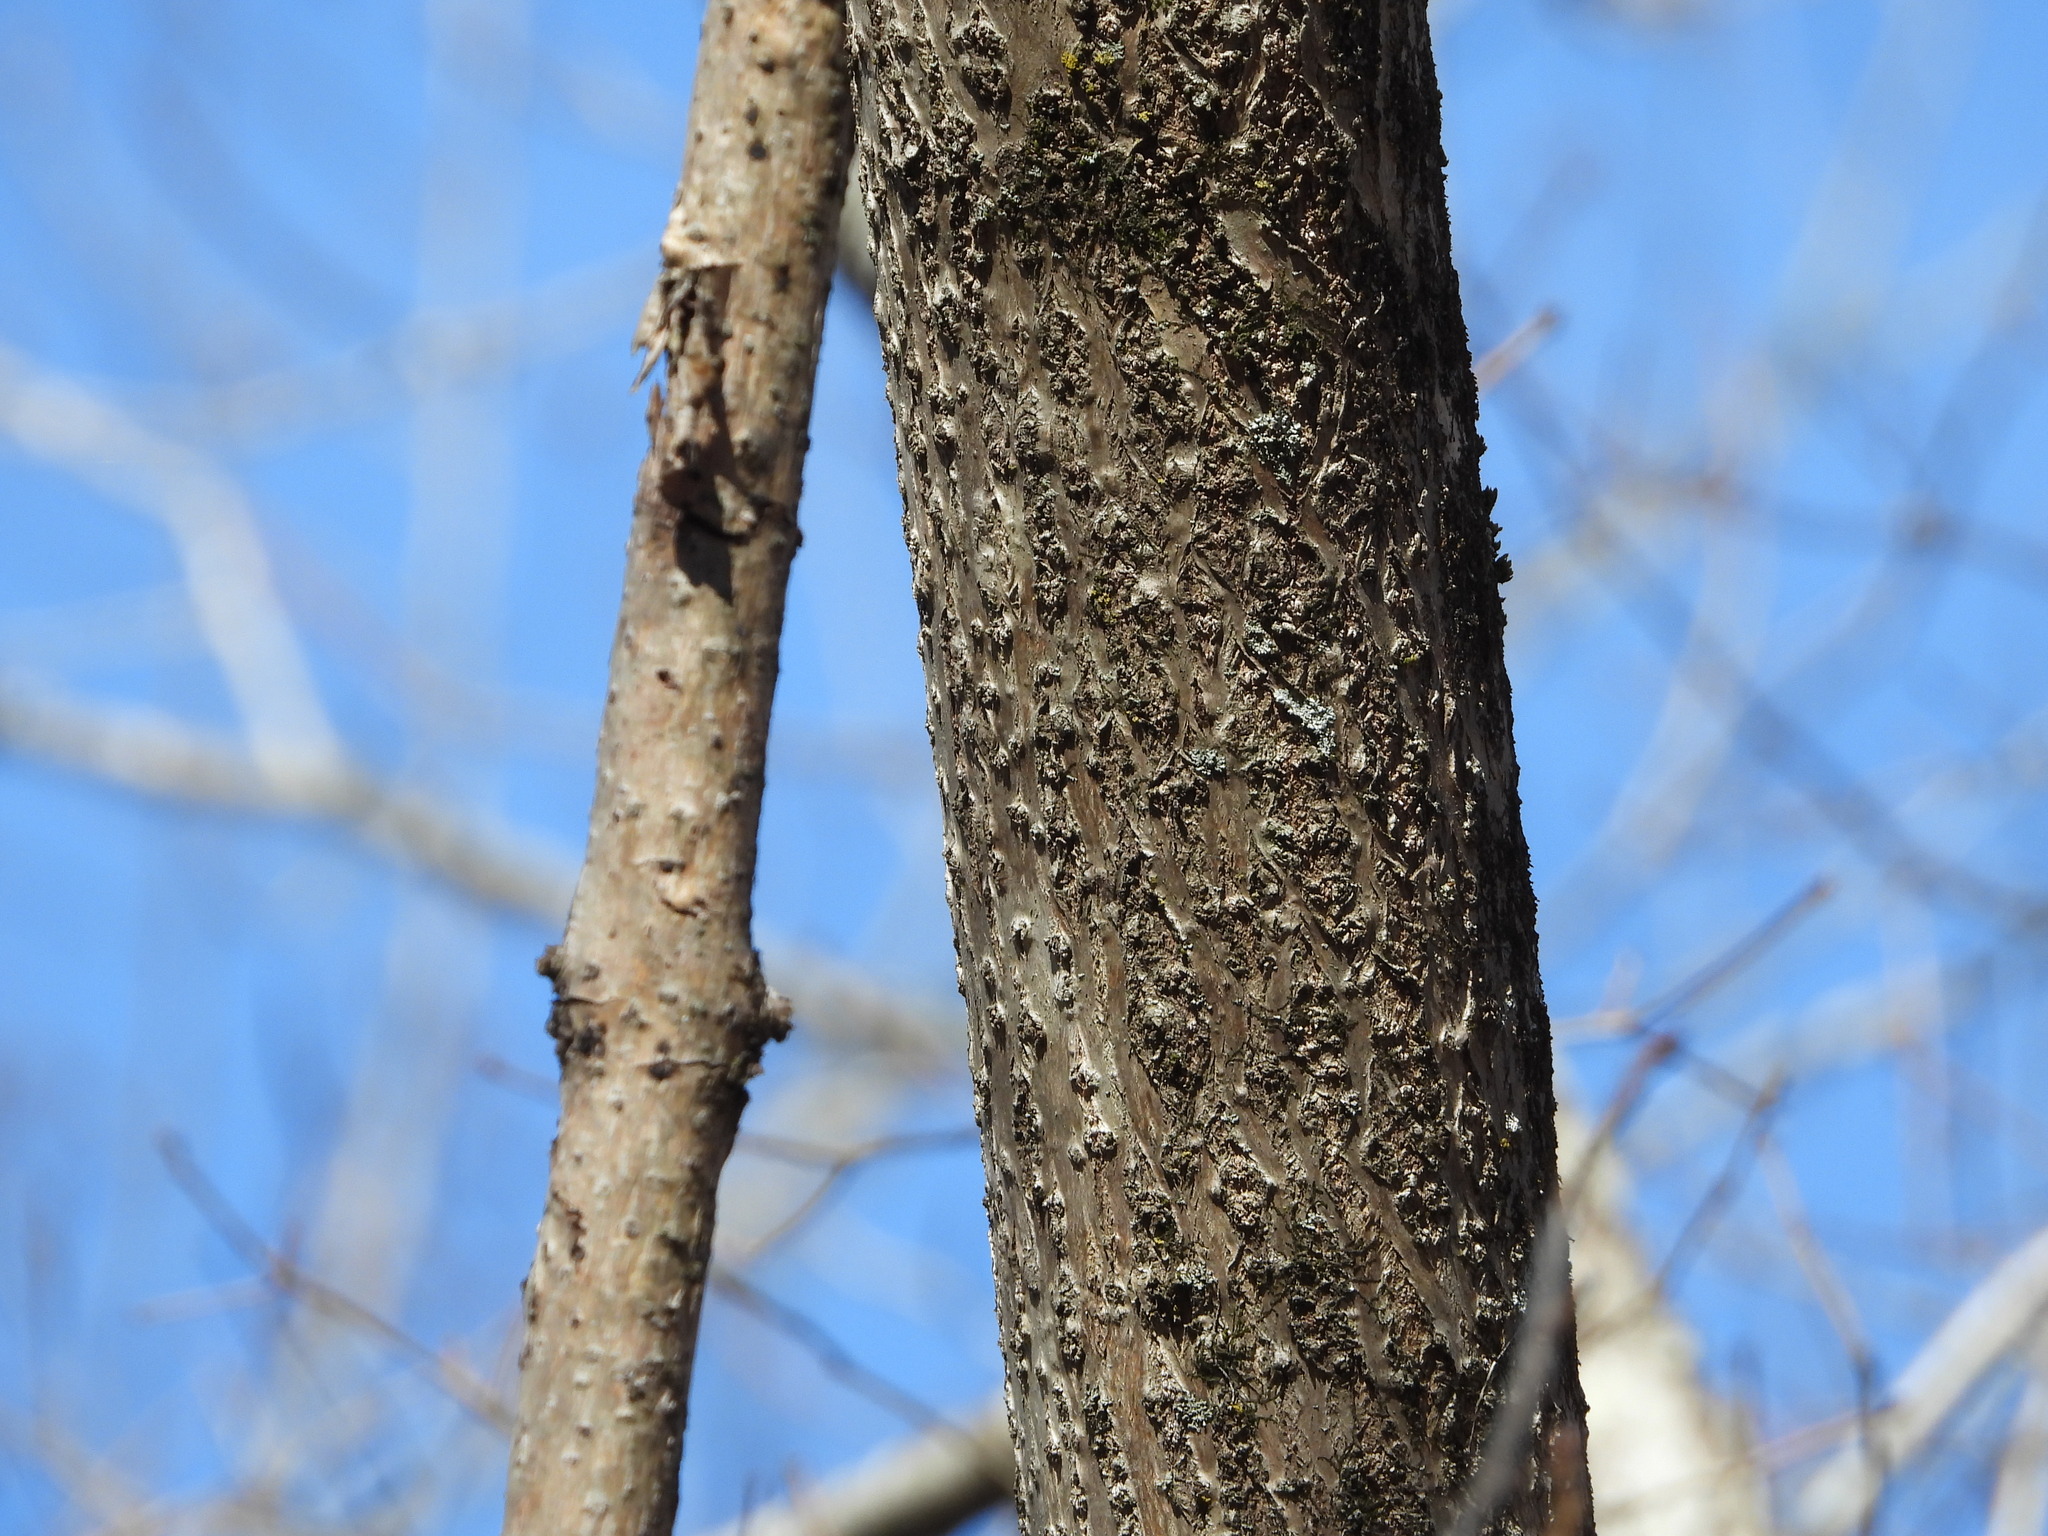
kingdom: Plantae
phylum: Tracheophyta
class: Magnoliopsida
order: Lamiales
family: Paulowniaceae
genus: Paulownia
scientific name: Paulownia tomentosa
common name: Foxglove-tree
